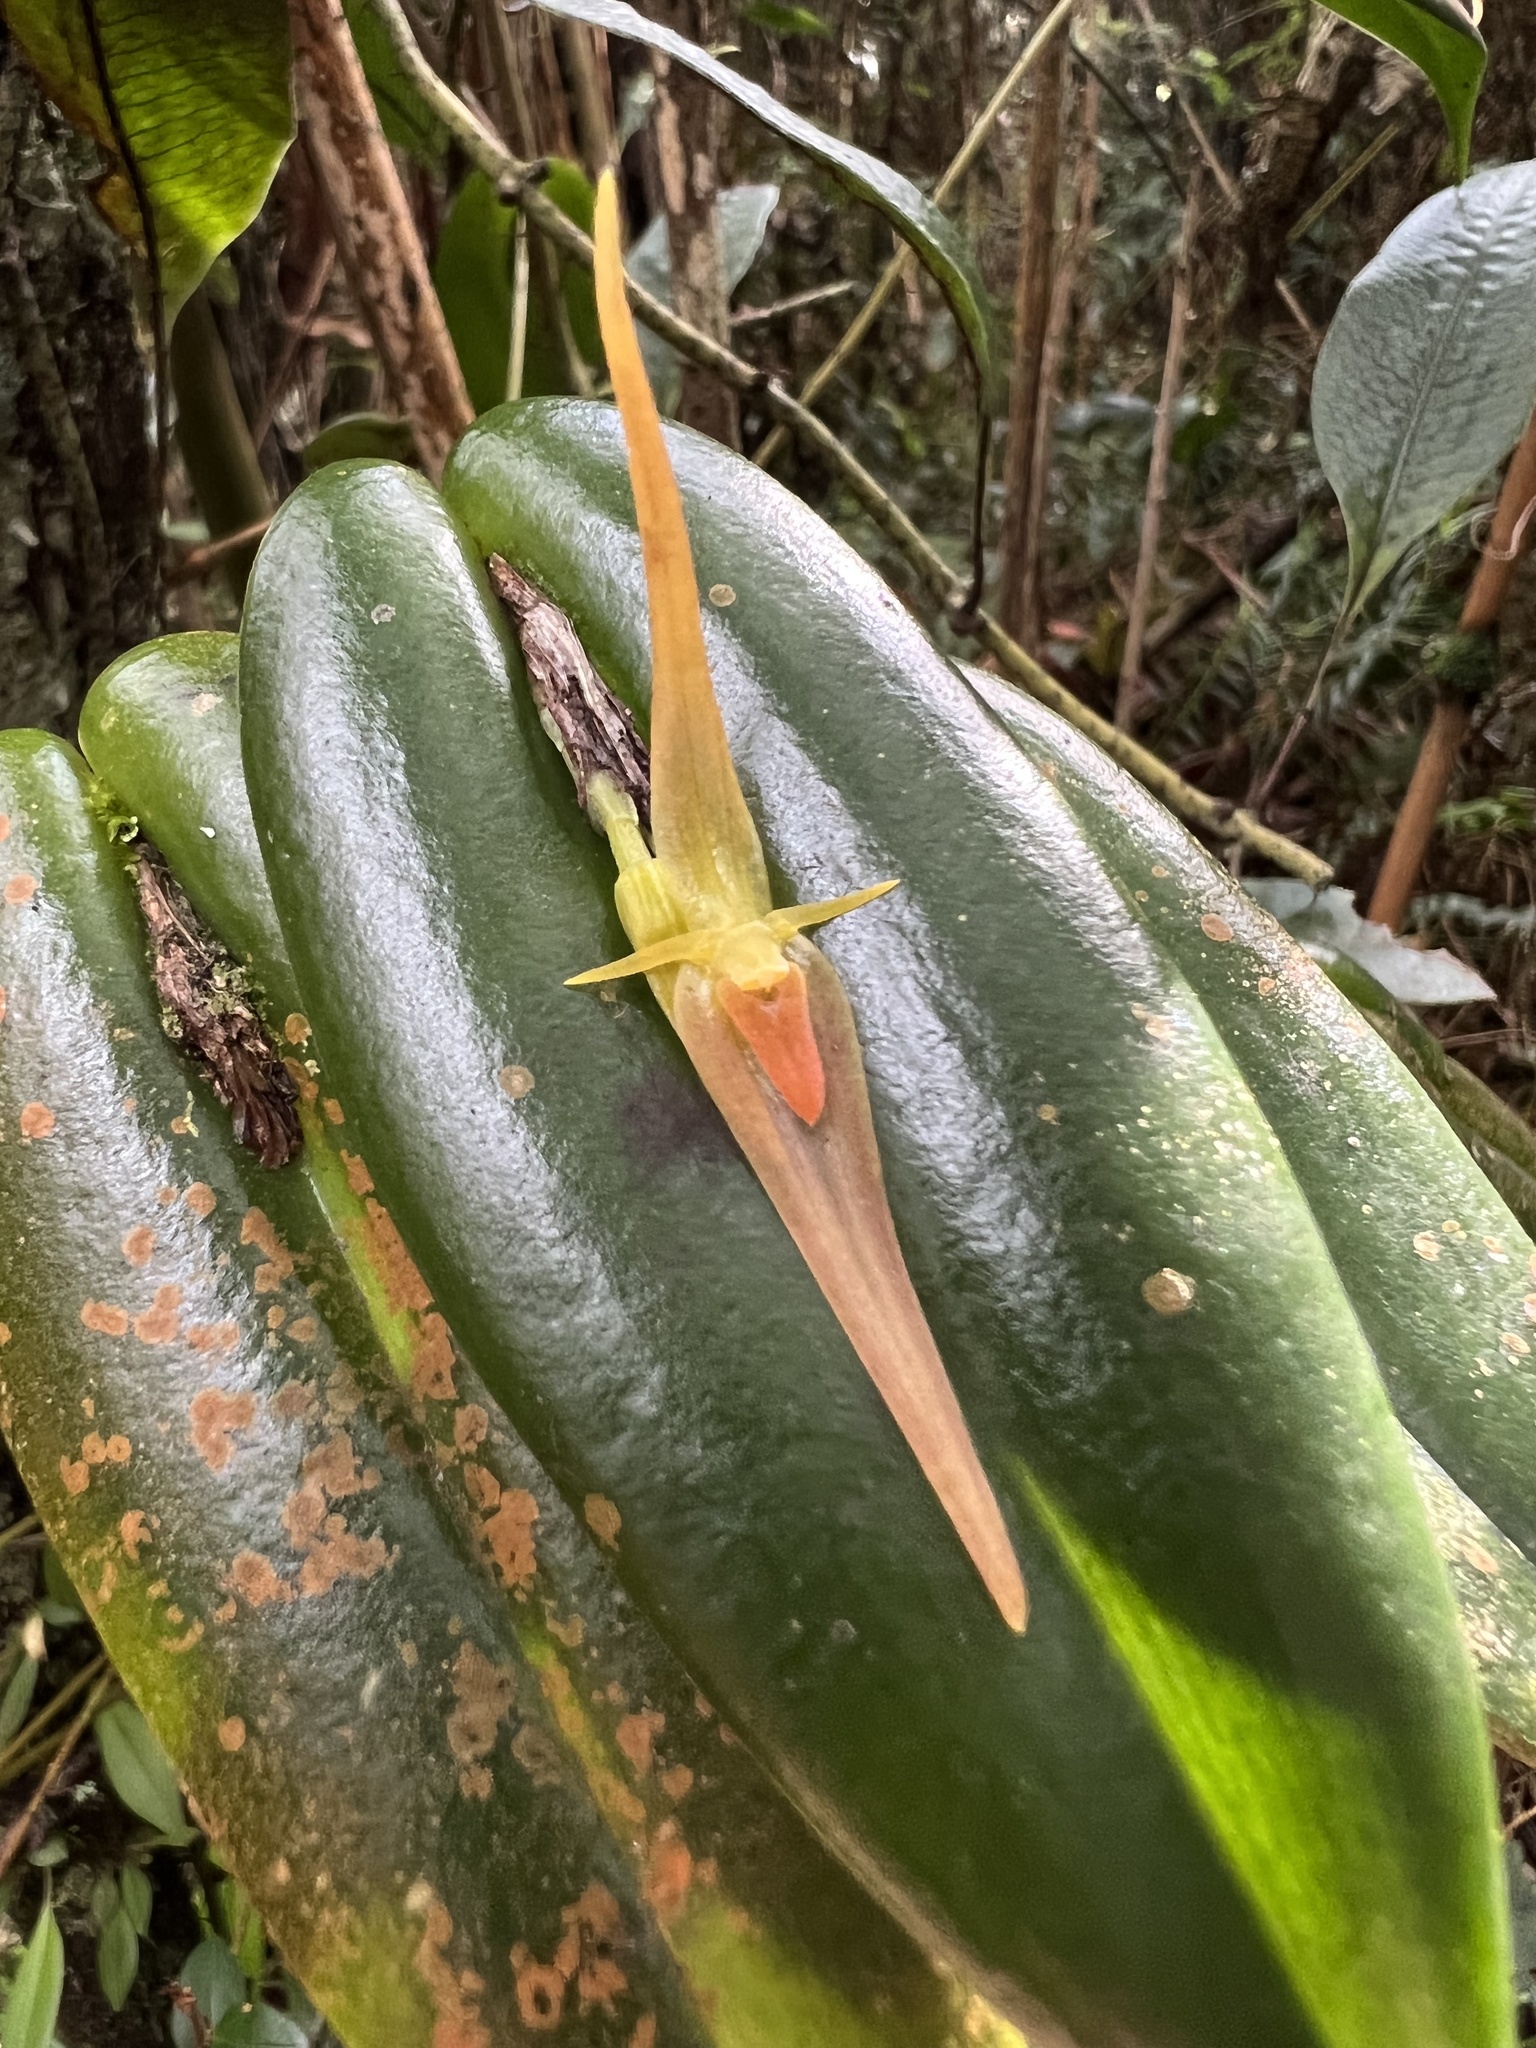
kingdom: Plantae
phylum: Tracheophyta
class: Liliopsida
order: Asparagales
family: Orchidaceae
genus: Pleurothallis
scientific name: Pleurothallis microcardia
